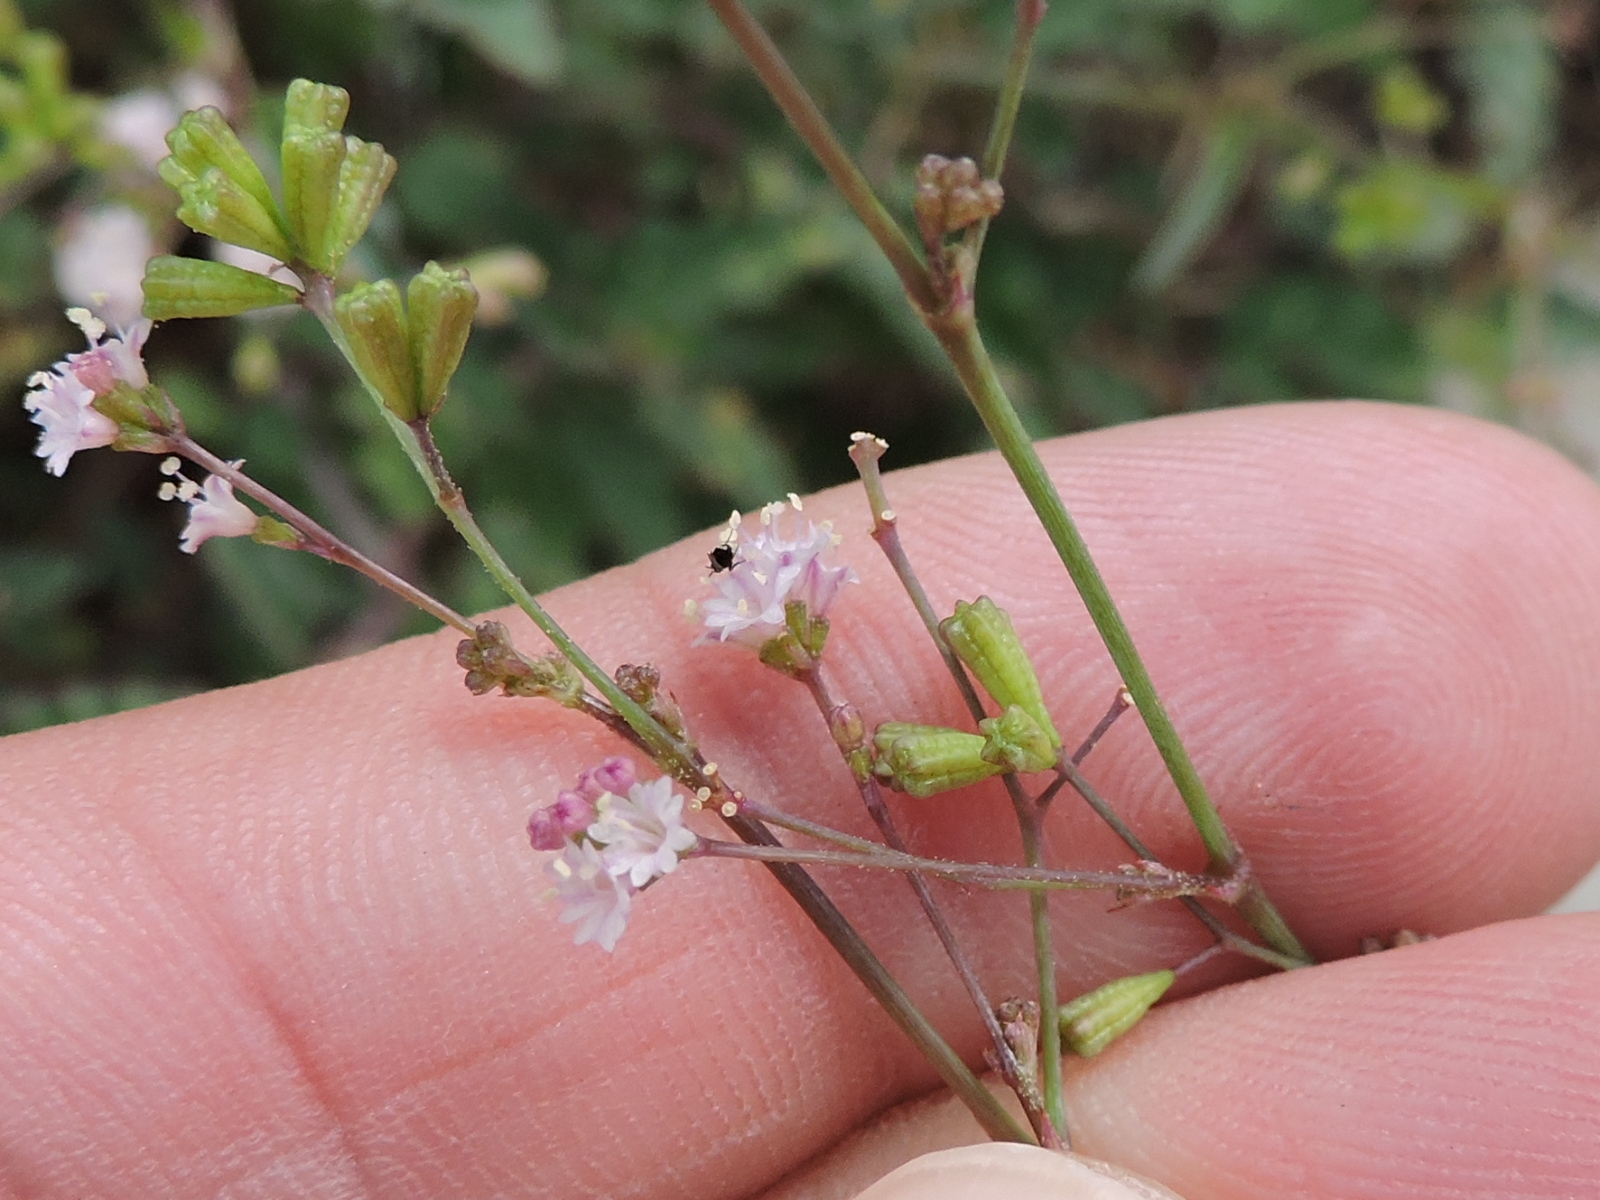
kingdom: Plantae
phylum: Tracheophyta
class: Magnoliopsida
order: Caryophyllales
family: Nyctaginaceae
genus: Boerhavia
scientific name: Boerhavia erecta
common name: Erect spiderling
